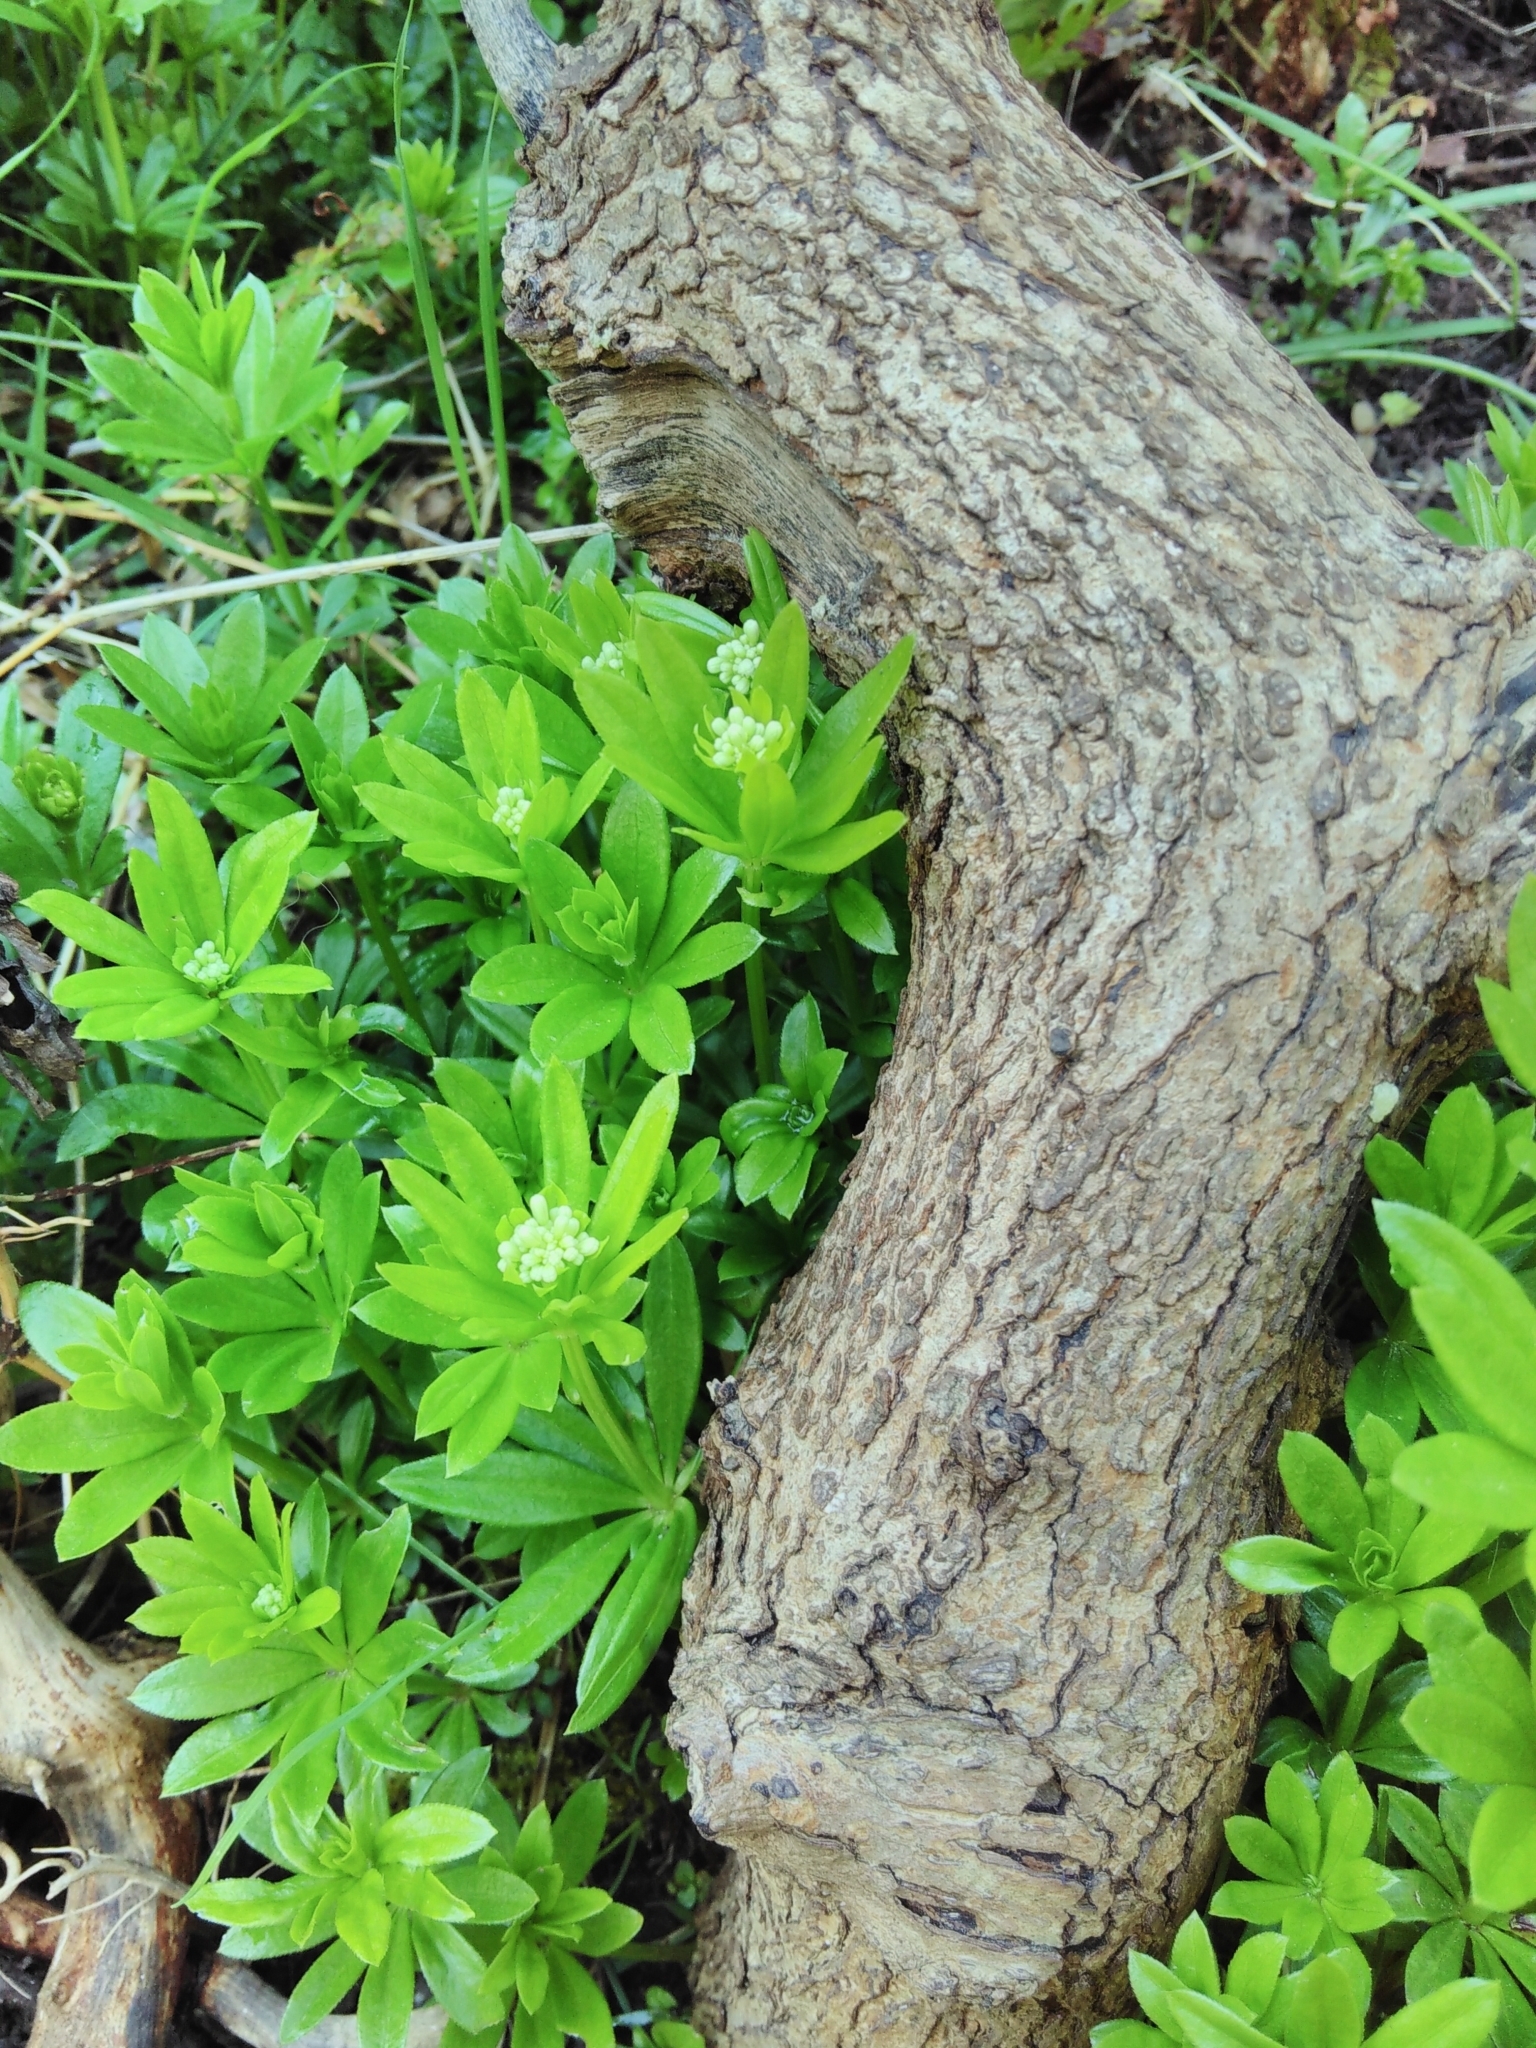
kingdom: Plantae
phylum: Tracheophyta
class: Magnoliopsida
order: Gentianales
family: Rubiaceae
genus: Galium
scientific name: Galium odoratum
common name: Sweet woodruff
